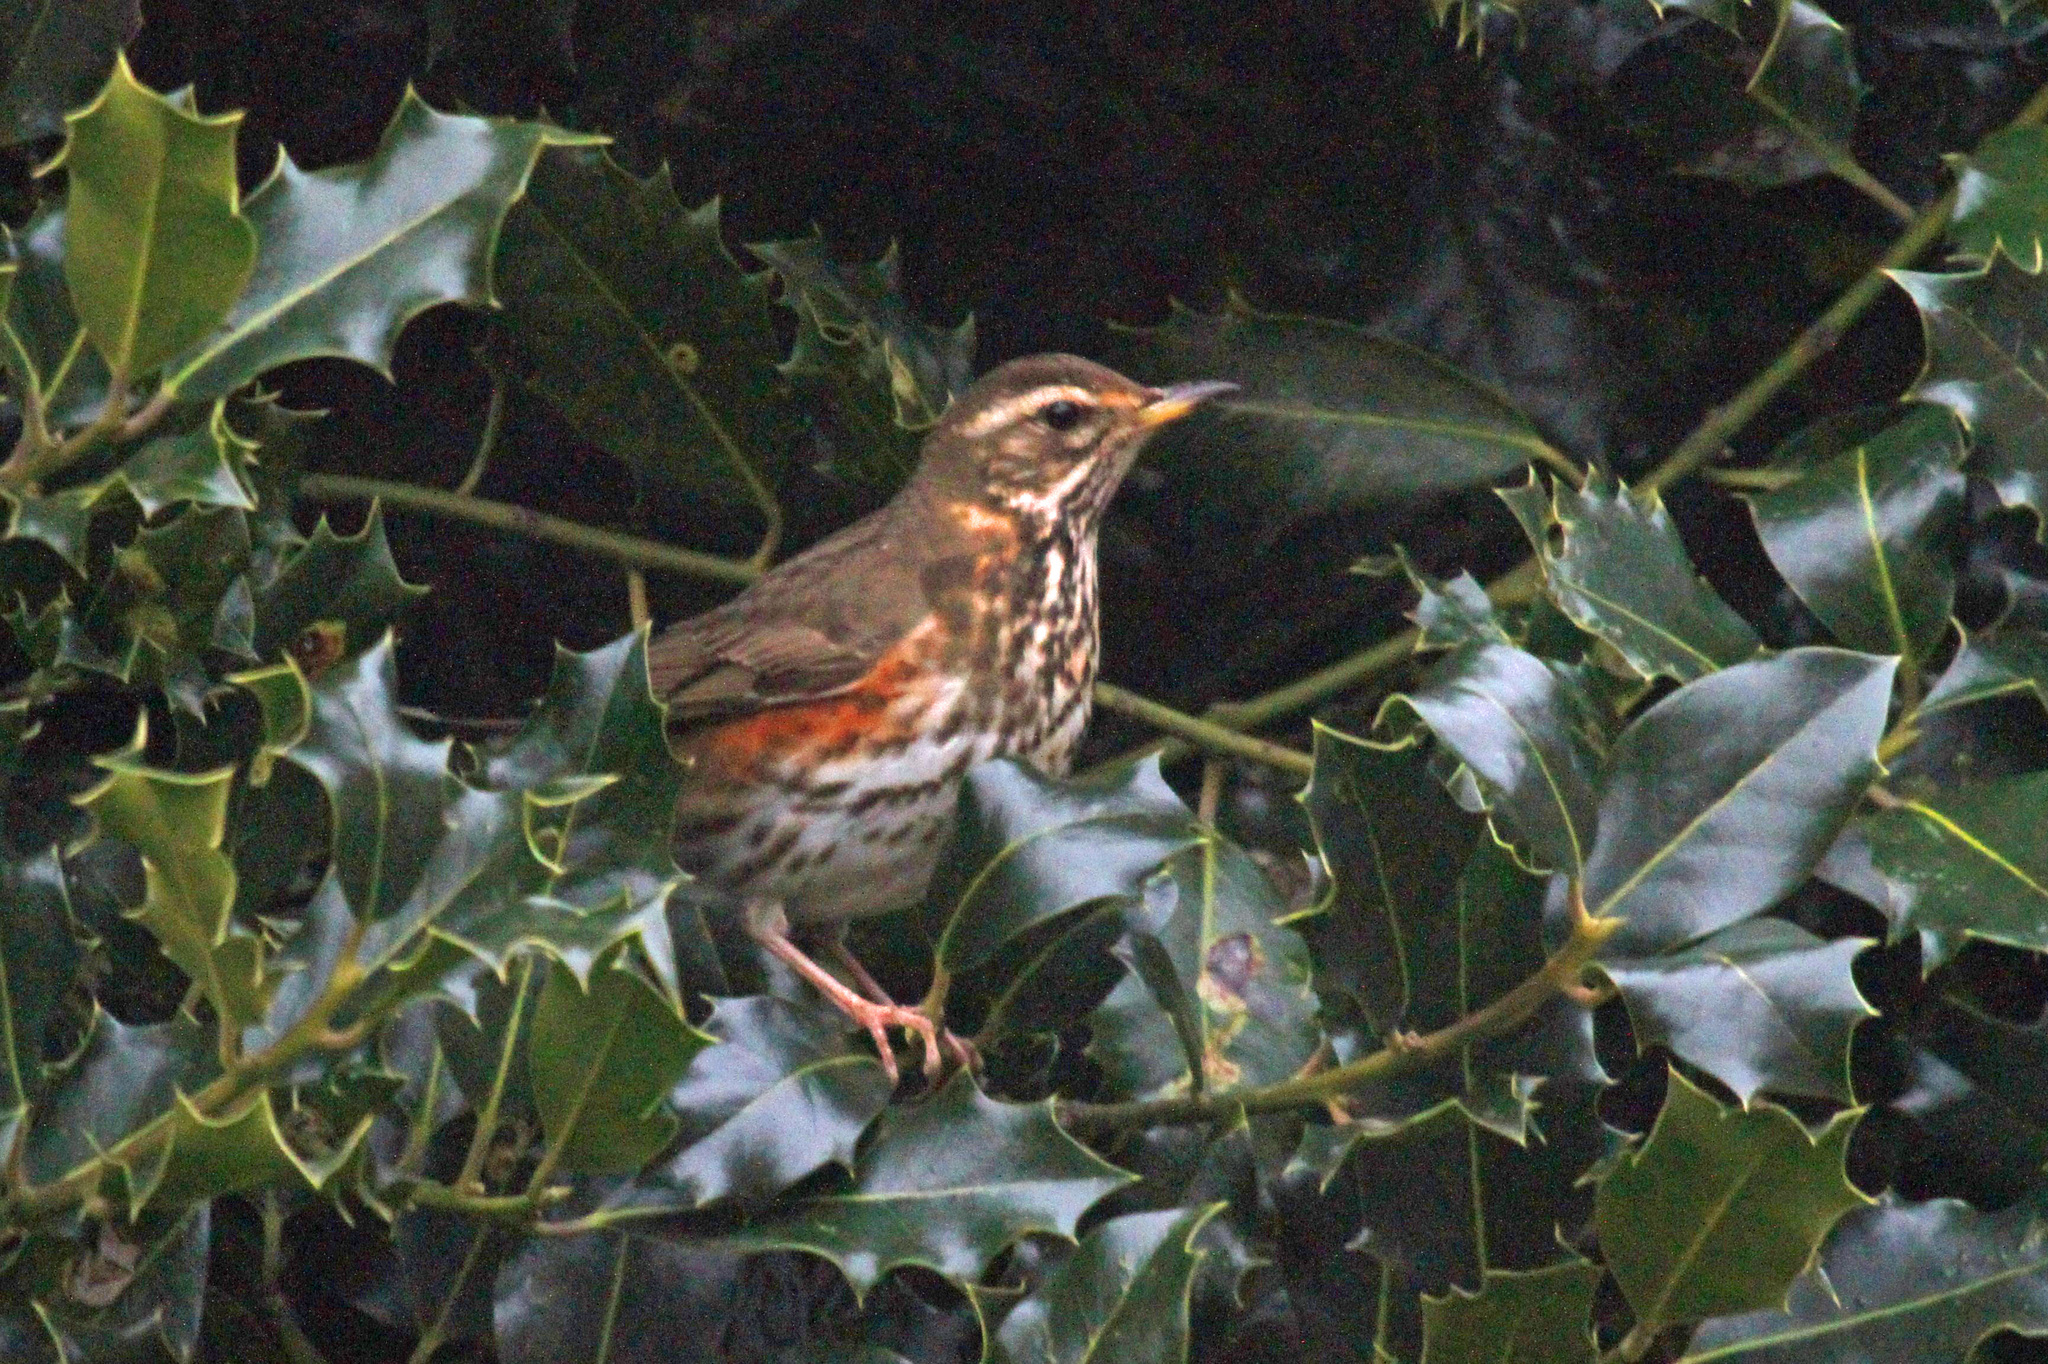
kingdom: Animalia
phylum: Chordata
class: Aves
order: Passeriformes
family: Turdidae
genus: Turdus
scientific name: Turdus iliacus
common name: Redwing
